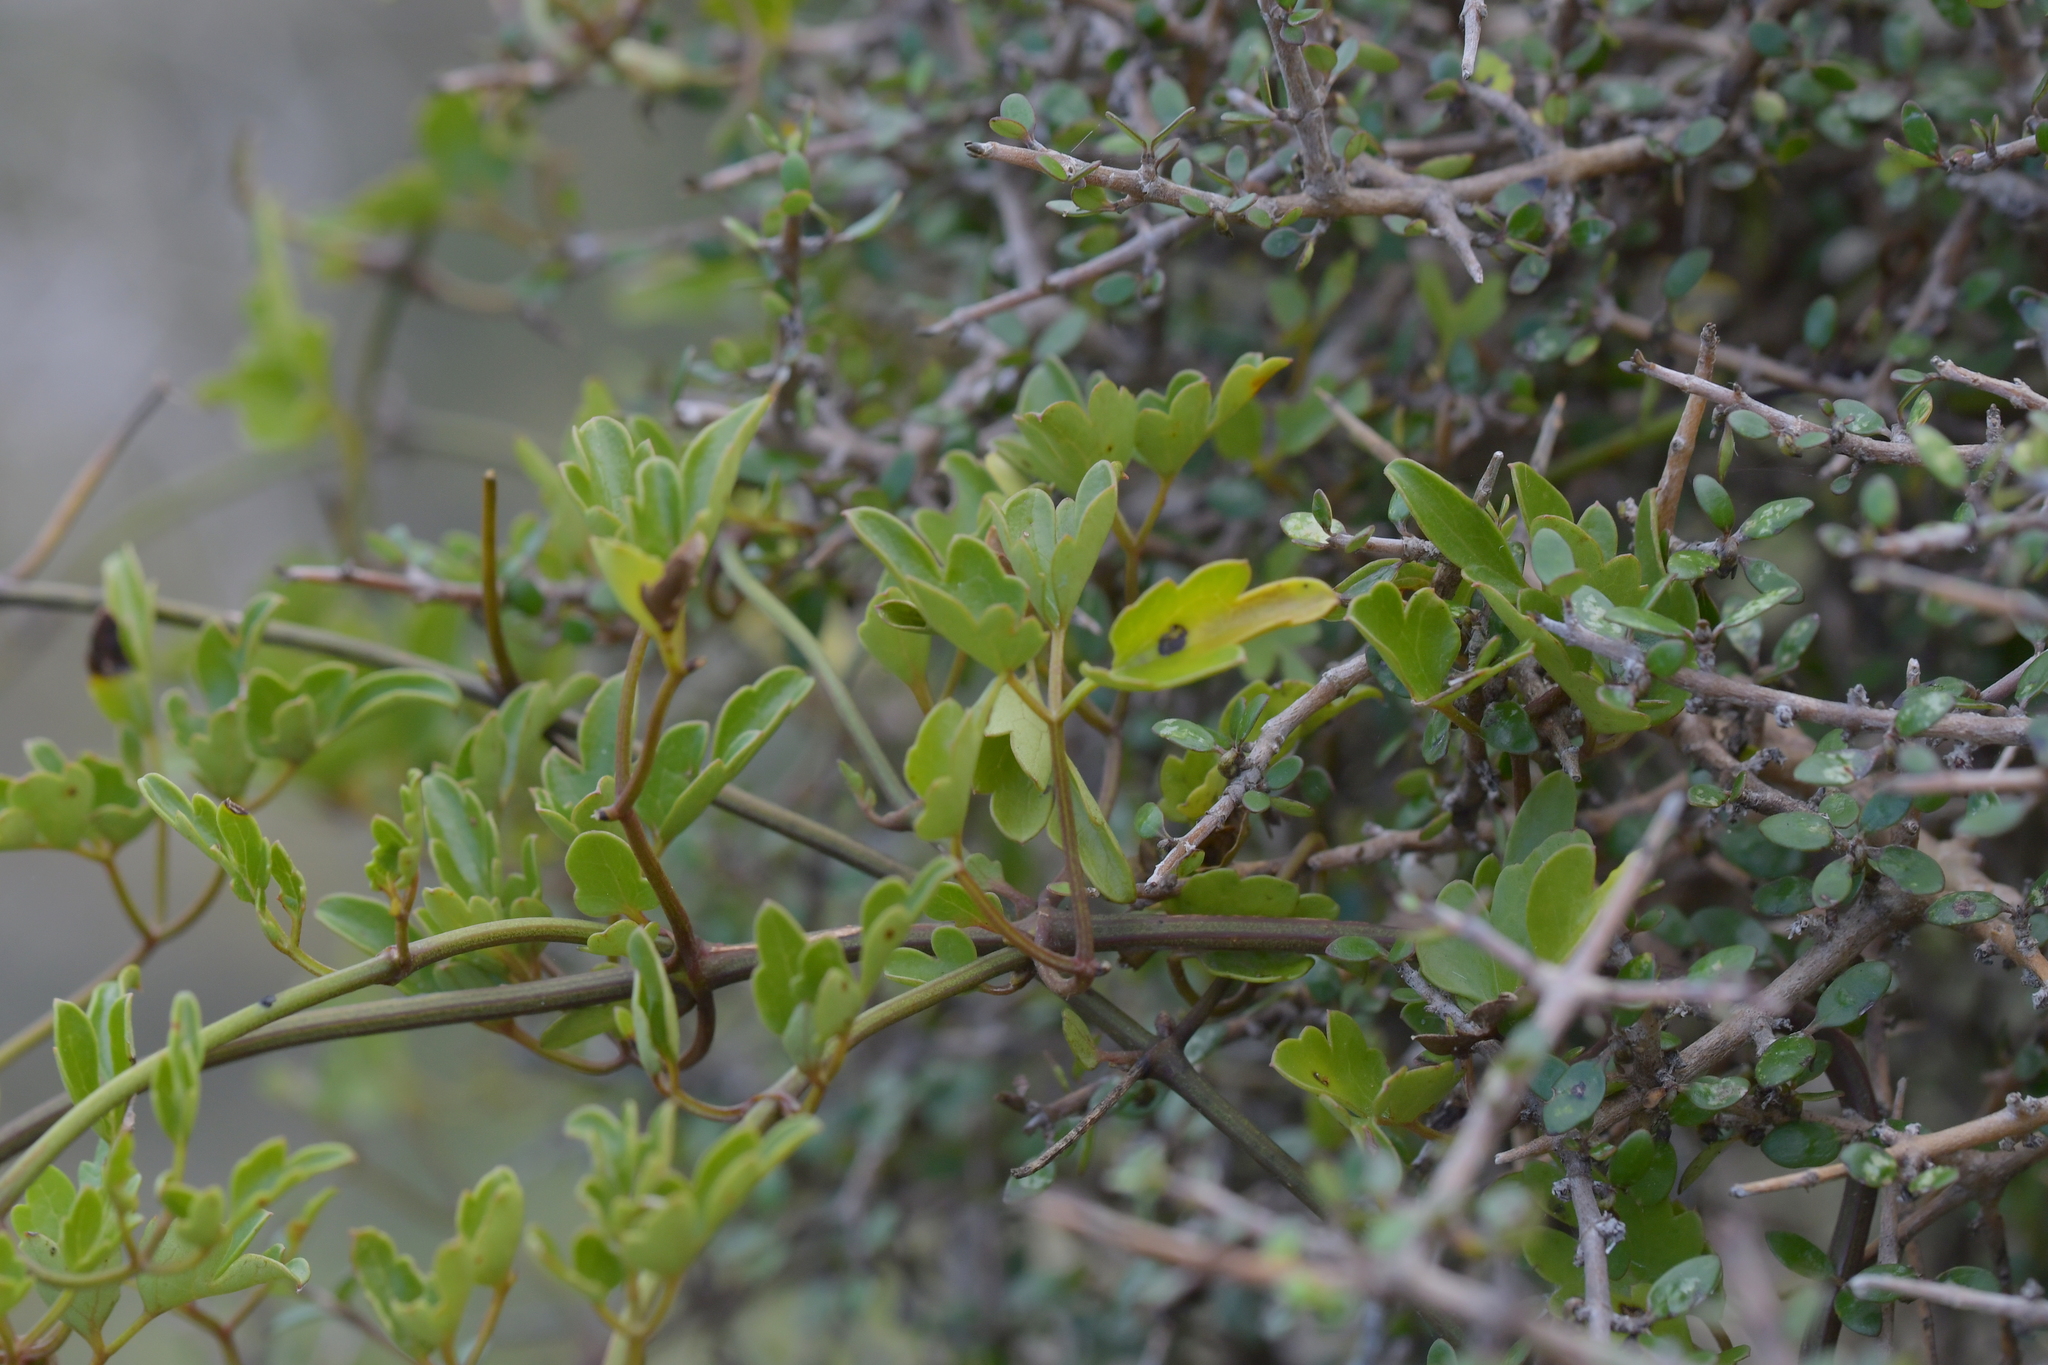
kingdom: Plantae
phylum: Tracheophyta
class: Magnoliopsida
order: Ranunculales
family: Ranunculaceae
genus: Clematis
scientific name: Clematis forsteri
